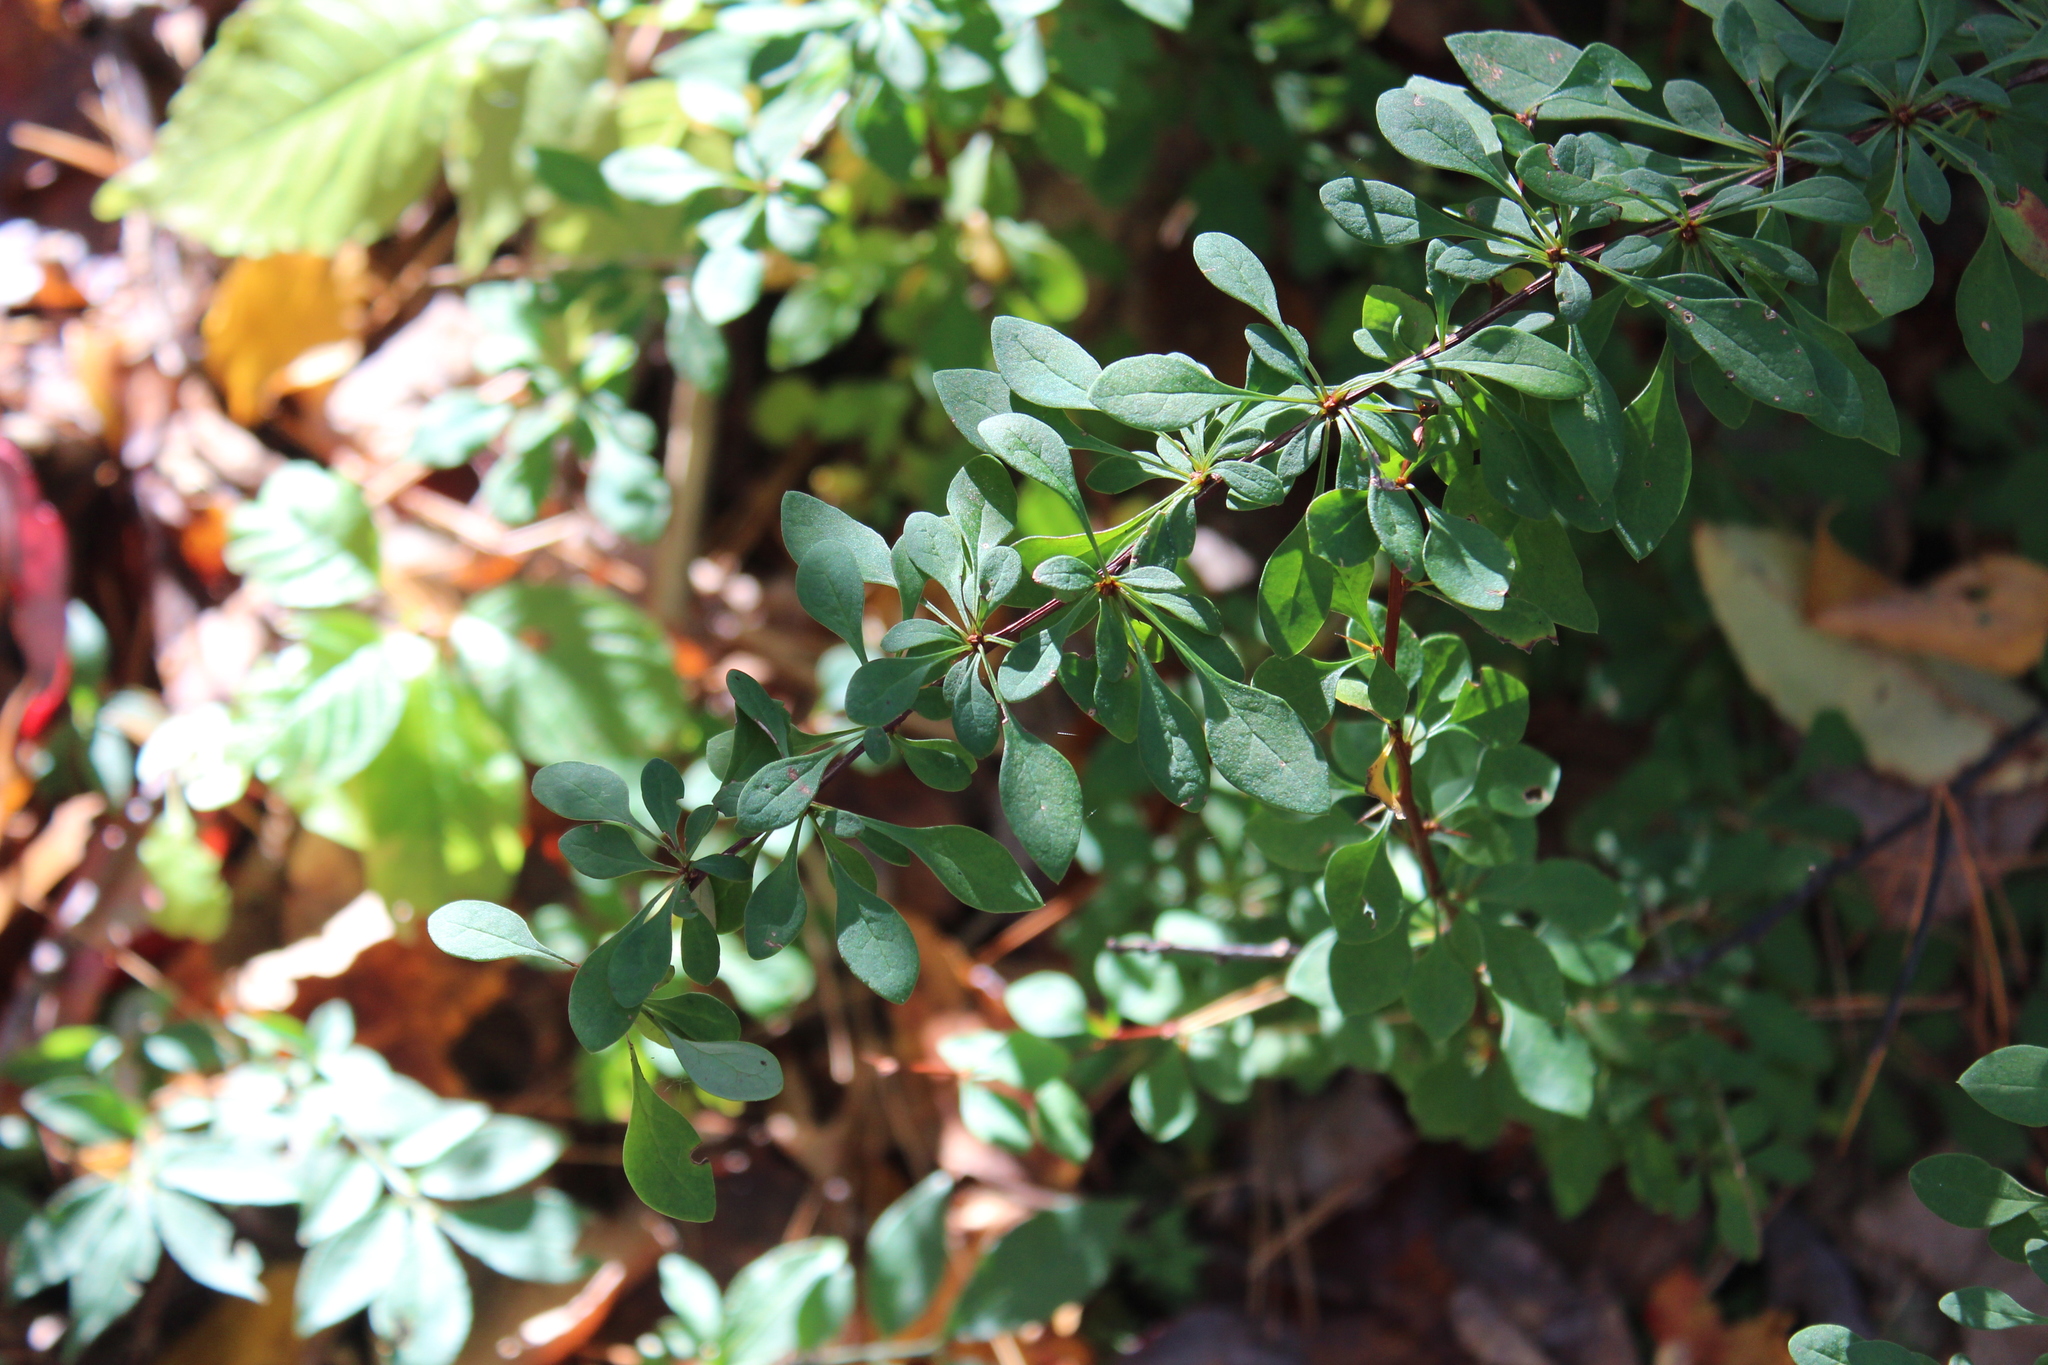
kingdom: Plantae
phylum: Tracheophyta
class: Magnoliopsida
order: Ranunculales
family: Berberidaceae
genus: Berberis
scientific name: Berberis thunbergii
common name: Japanese barberry
